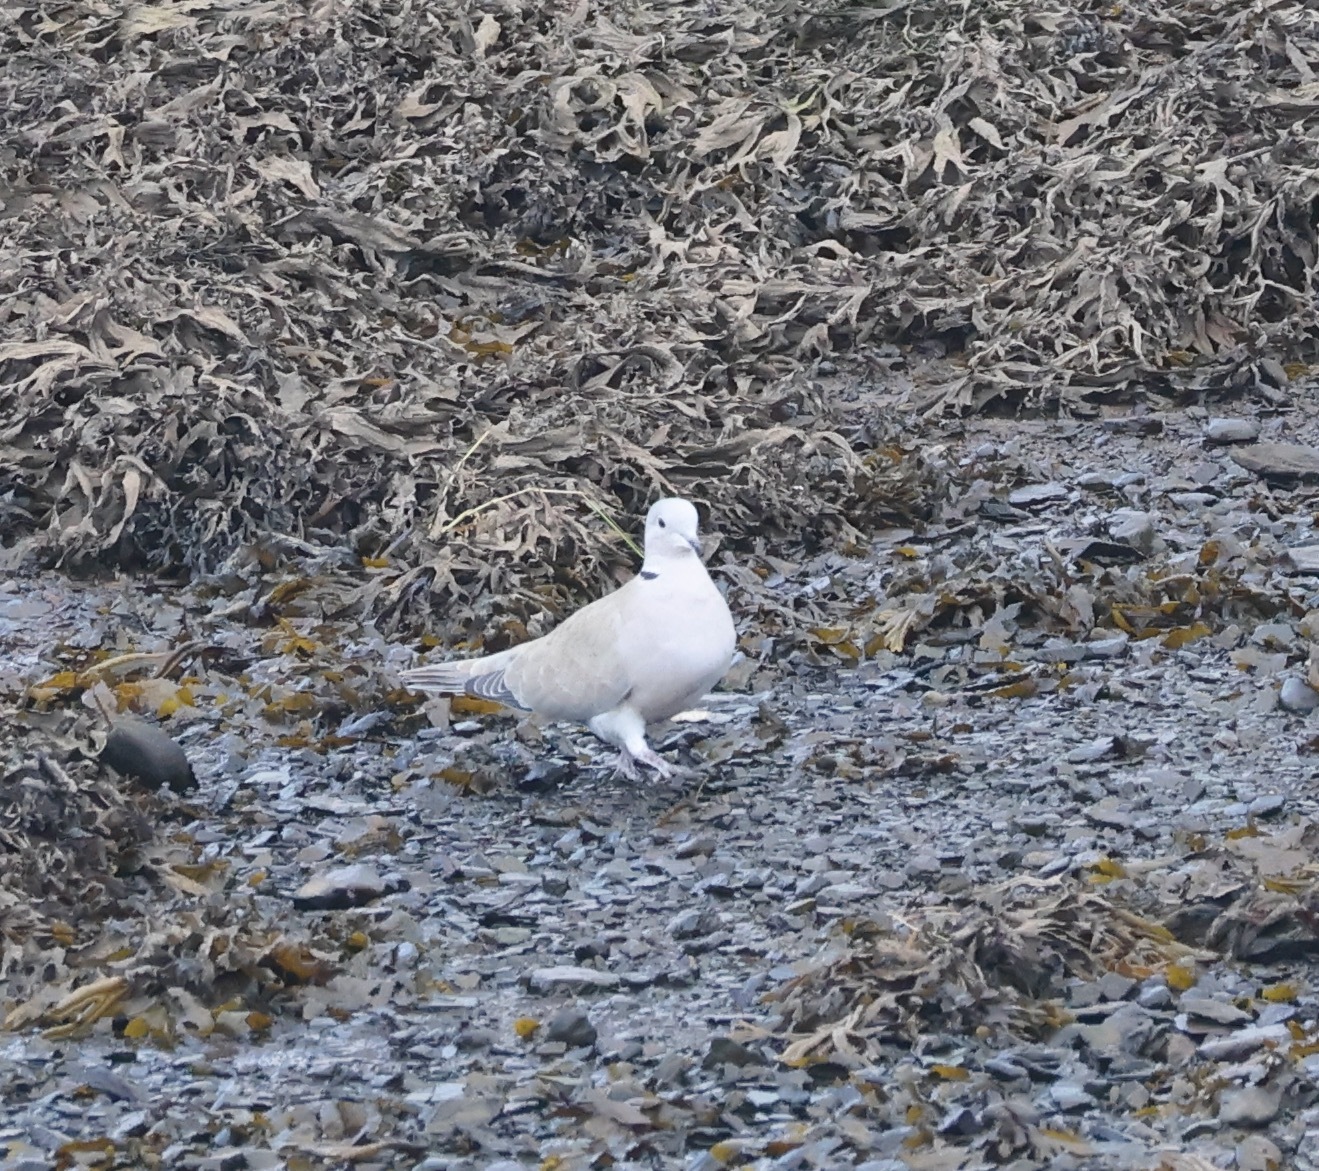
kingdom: Animalia
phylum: Chordata
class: Aves
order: Columbiformes
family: Columbidae
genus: Streptopelia
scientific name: Streptopelia decaocto
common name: Eurasian collared dove
